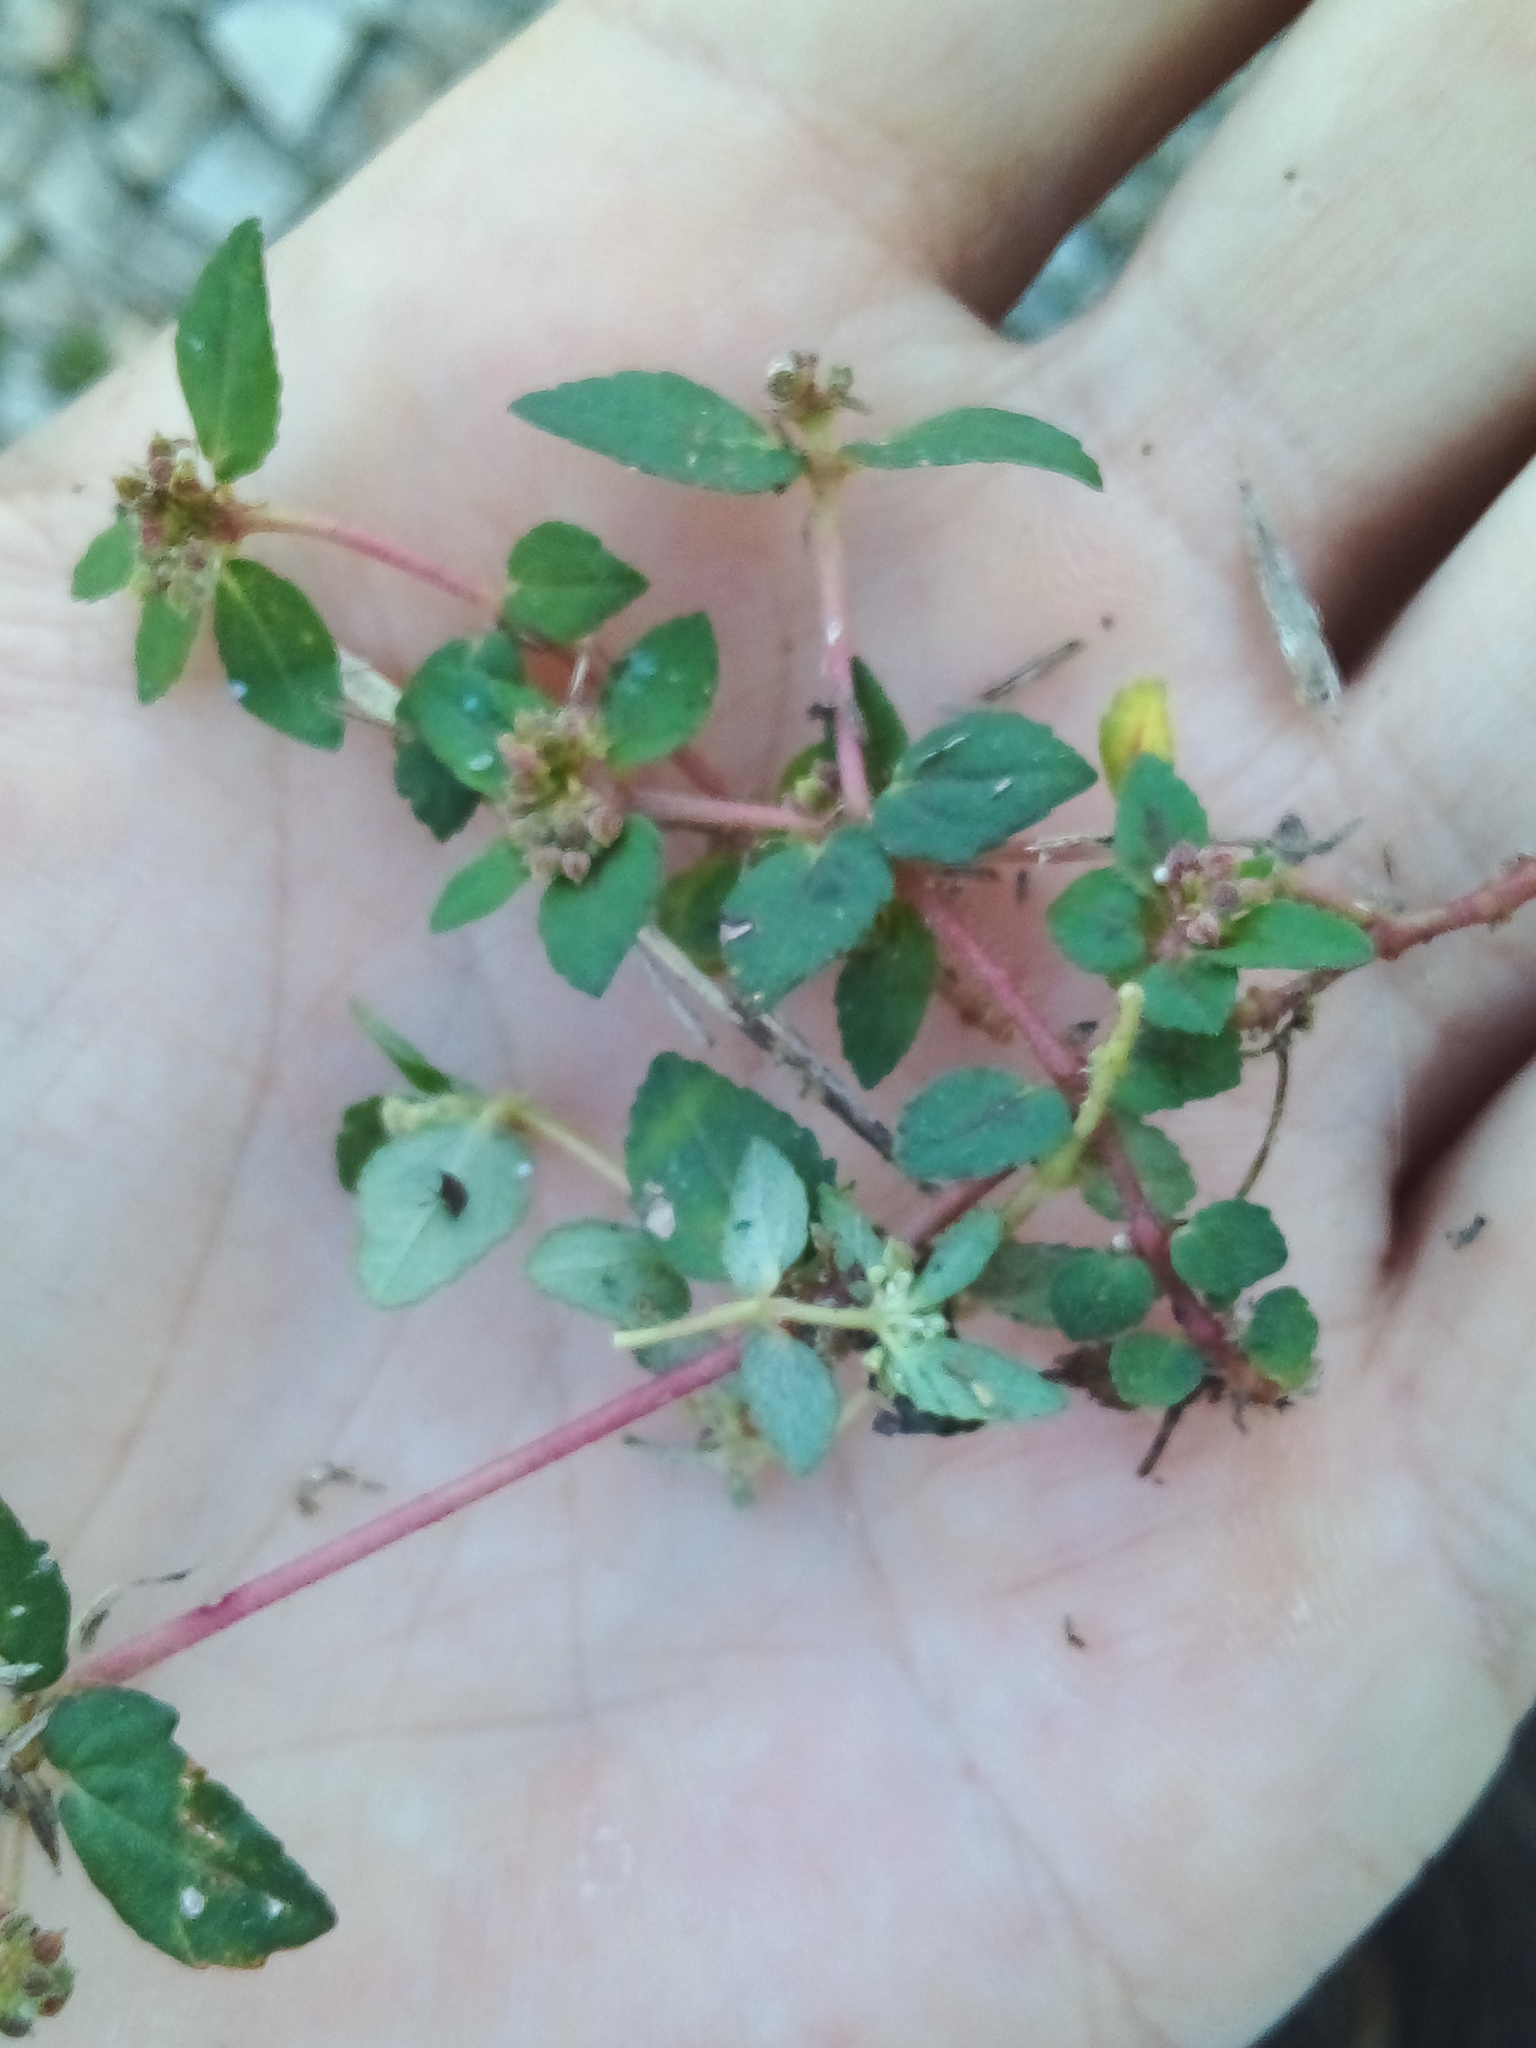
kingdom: Plantae
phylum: Tracheophyta
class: Magnoliopsida
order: Malpighiales
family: Euphorbiaceae
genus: Euphorbia
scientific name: Euphorbia ophthalmica
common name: Florida hammock sandmat
